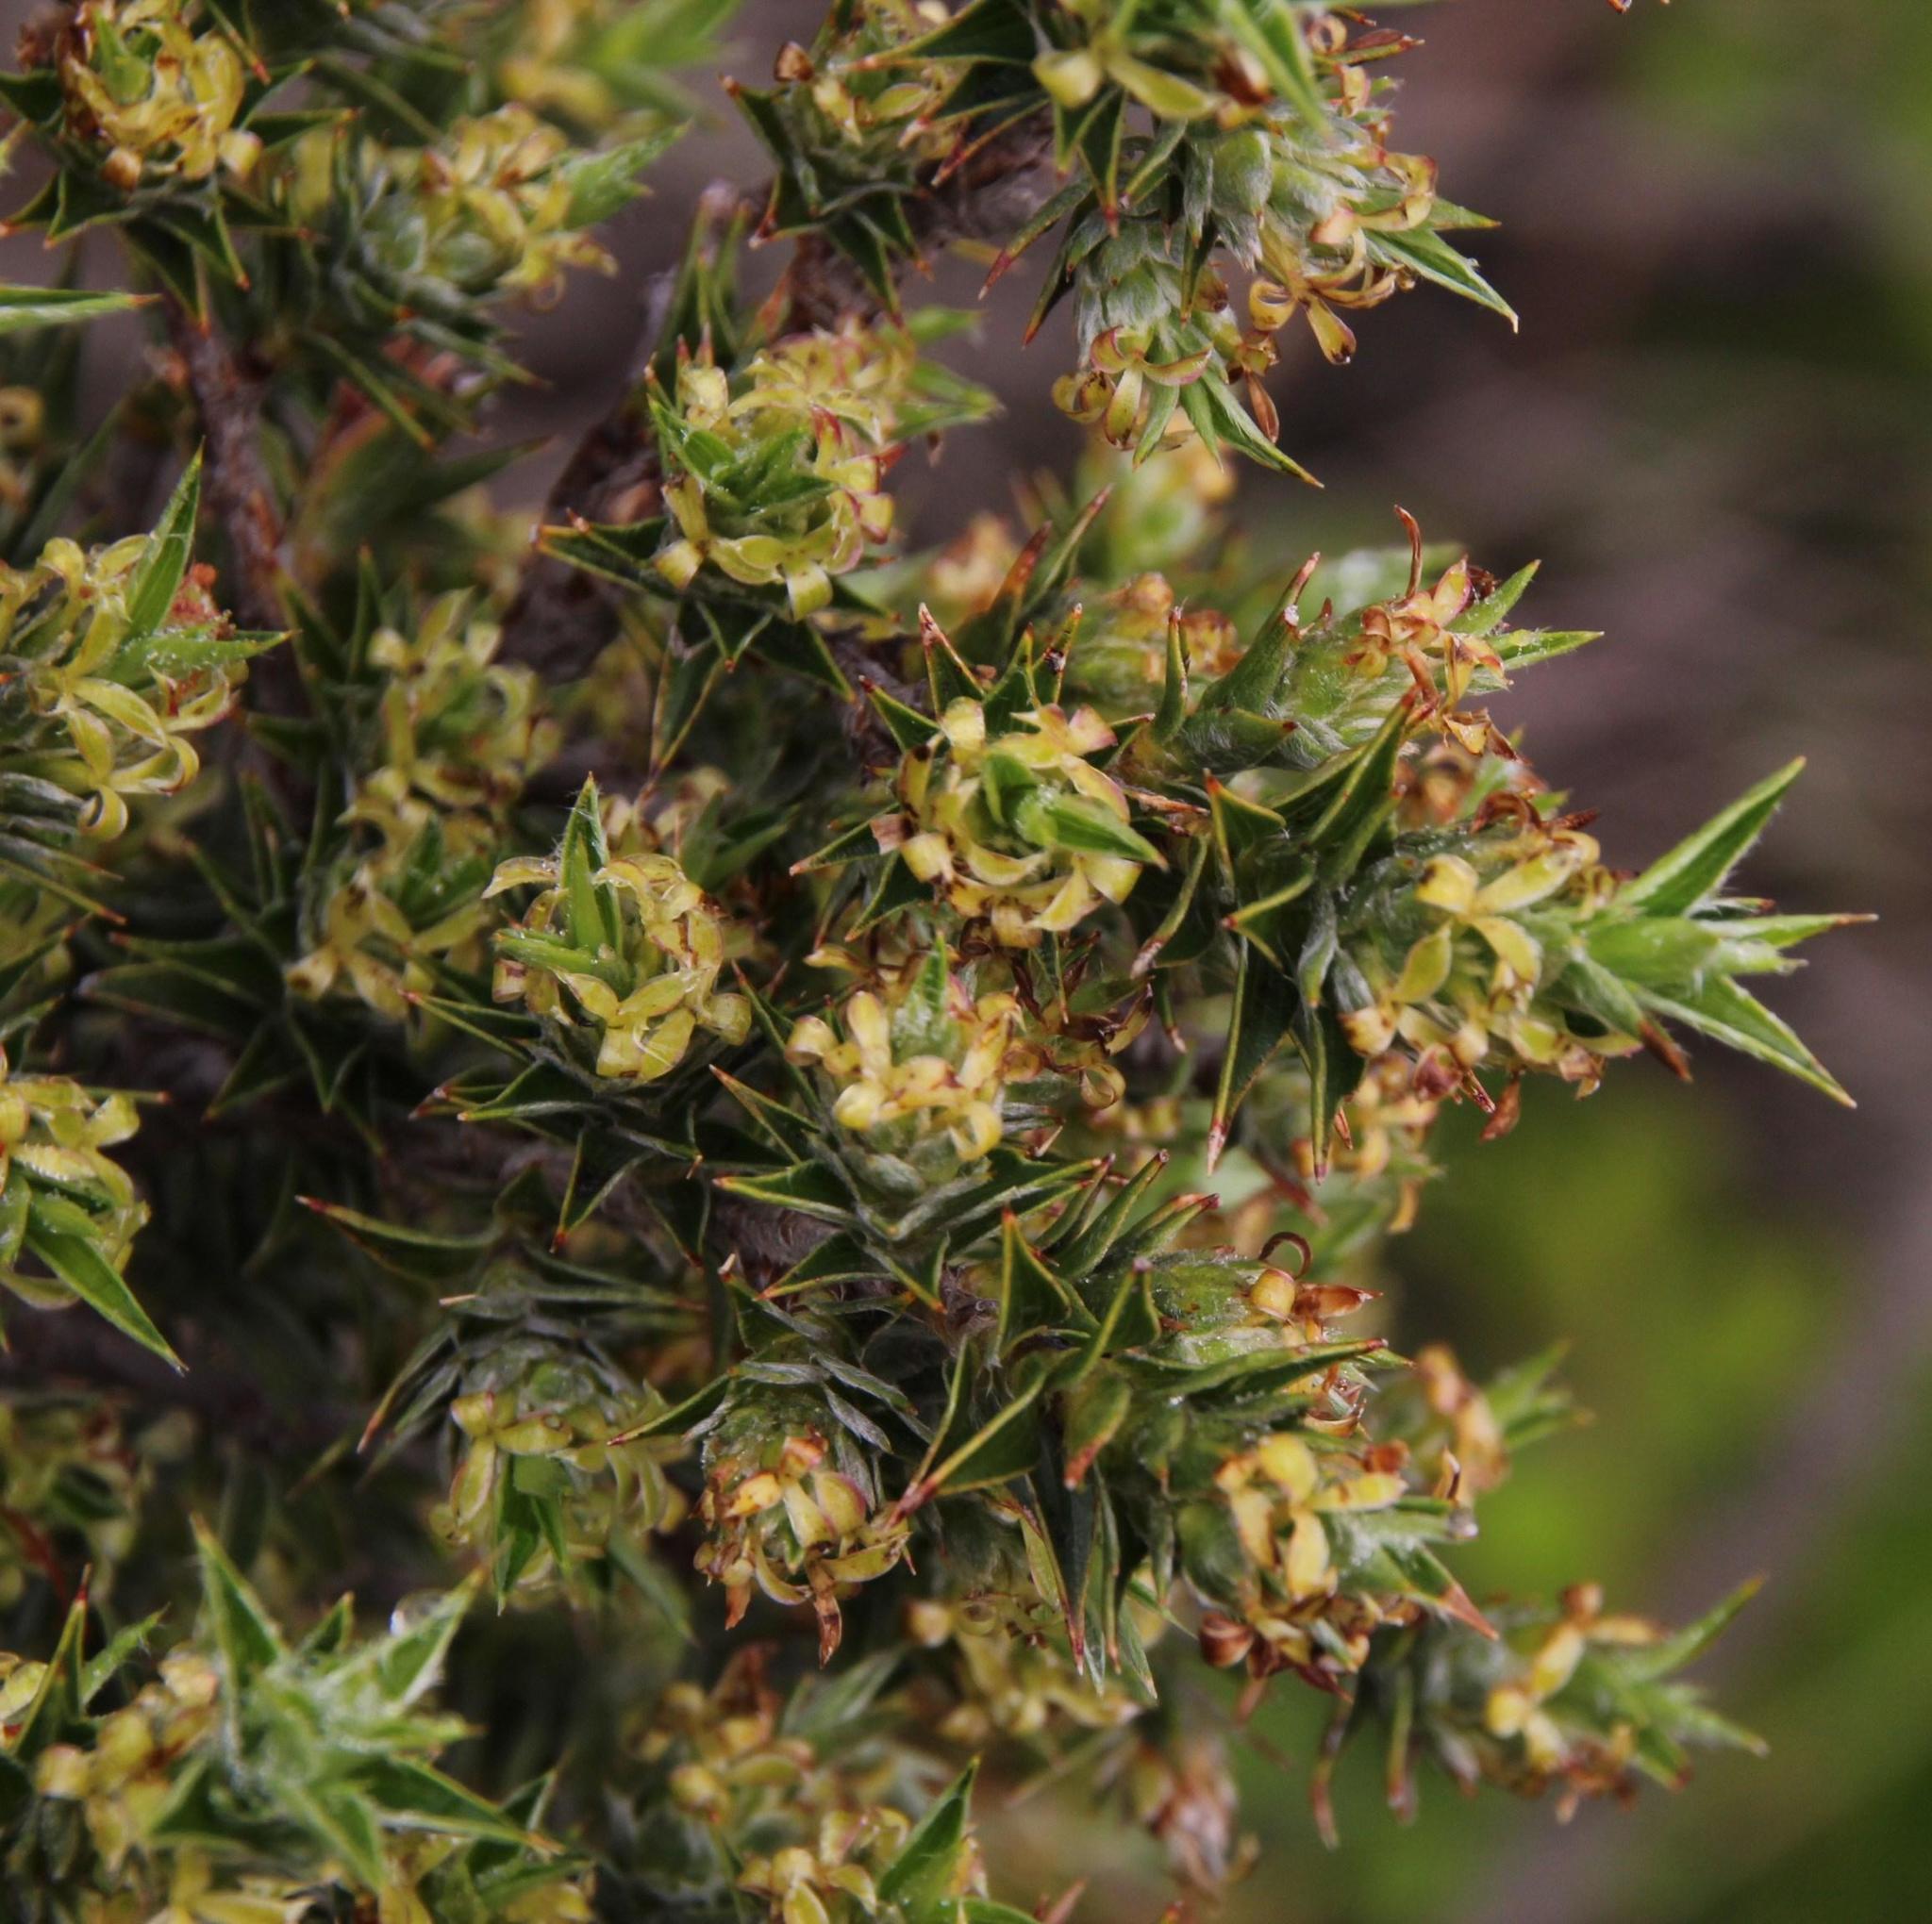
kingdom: Plantae
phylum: Tracheophyta
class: Magnoliopsida
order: Rosales
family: Rosaceae
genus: Cliffortia
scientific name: Cliffortia ruscifolia
